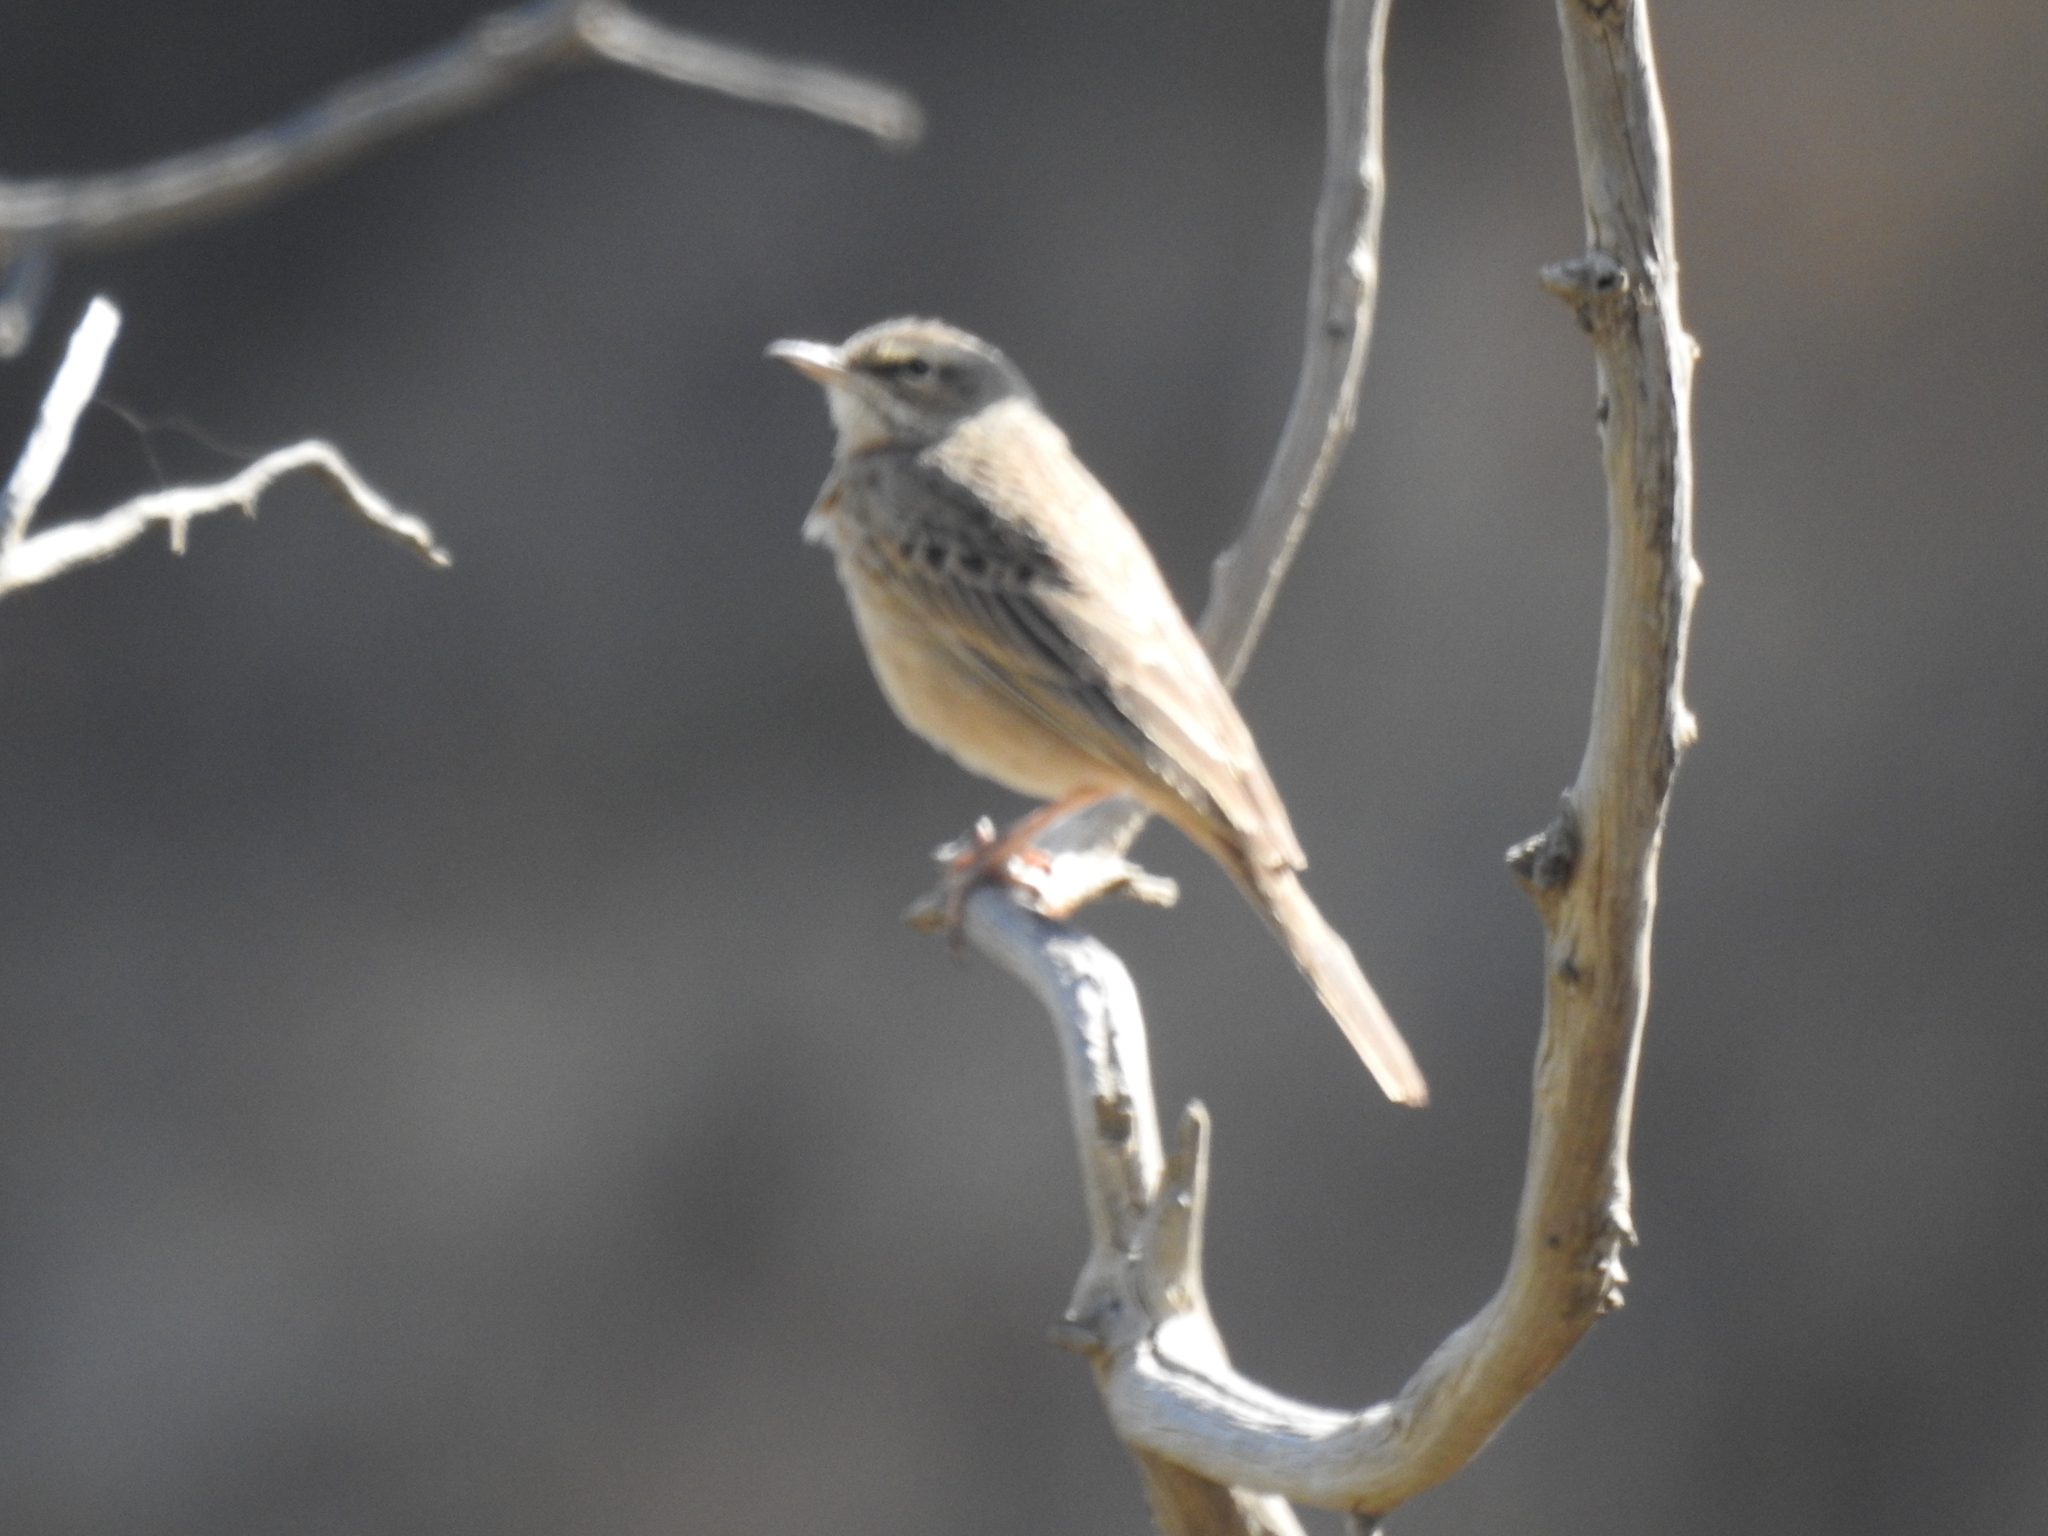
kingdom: Animalia
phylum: Chordata
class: Aves
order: Passeriformes
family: Motacillidae
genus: Anthus
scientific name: Anthus similis
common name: Long-billed pipit
